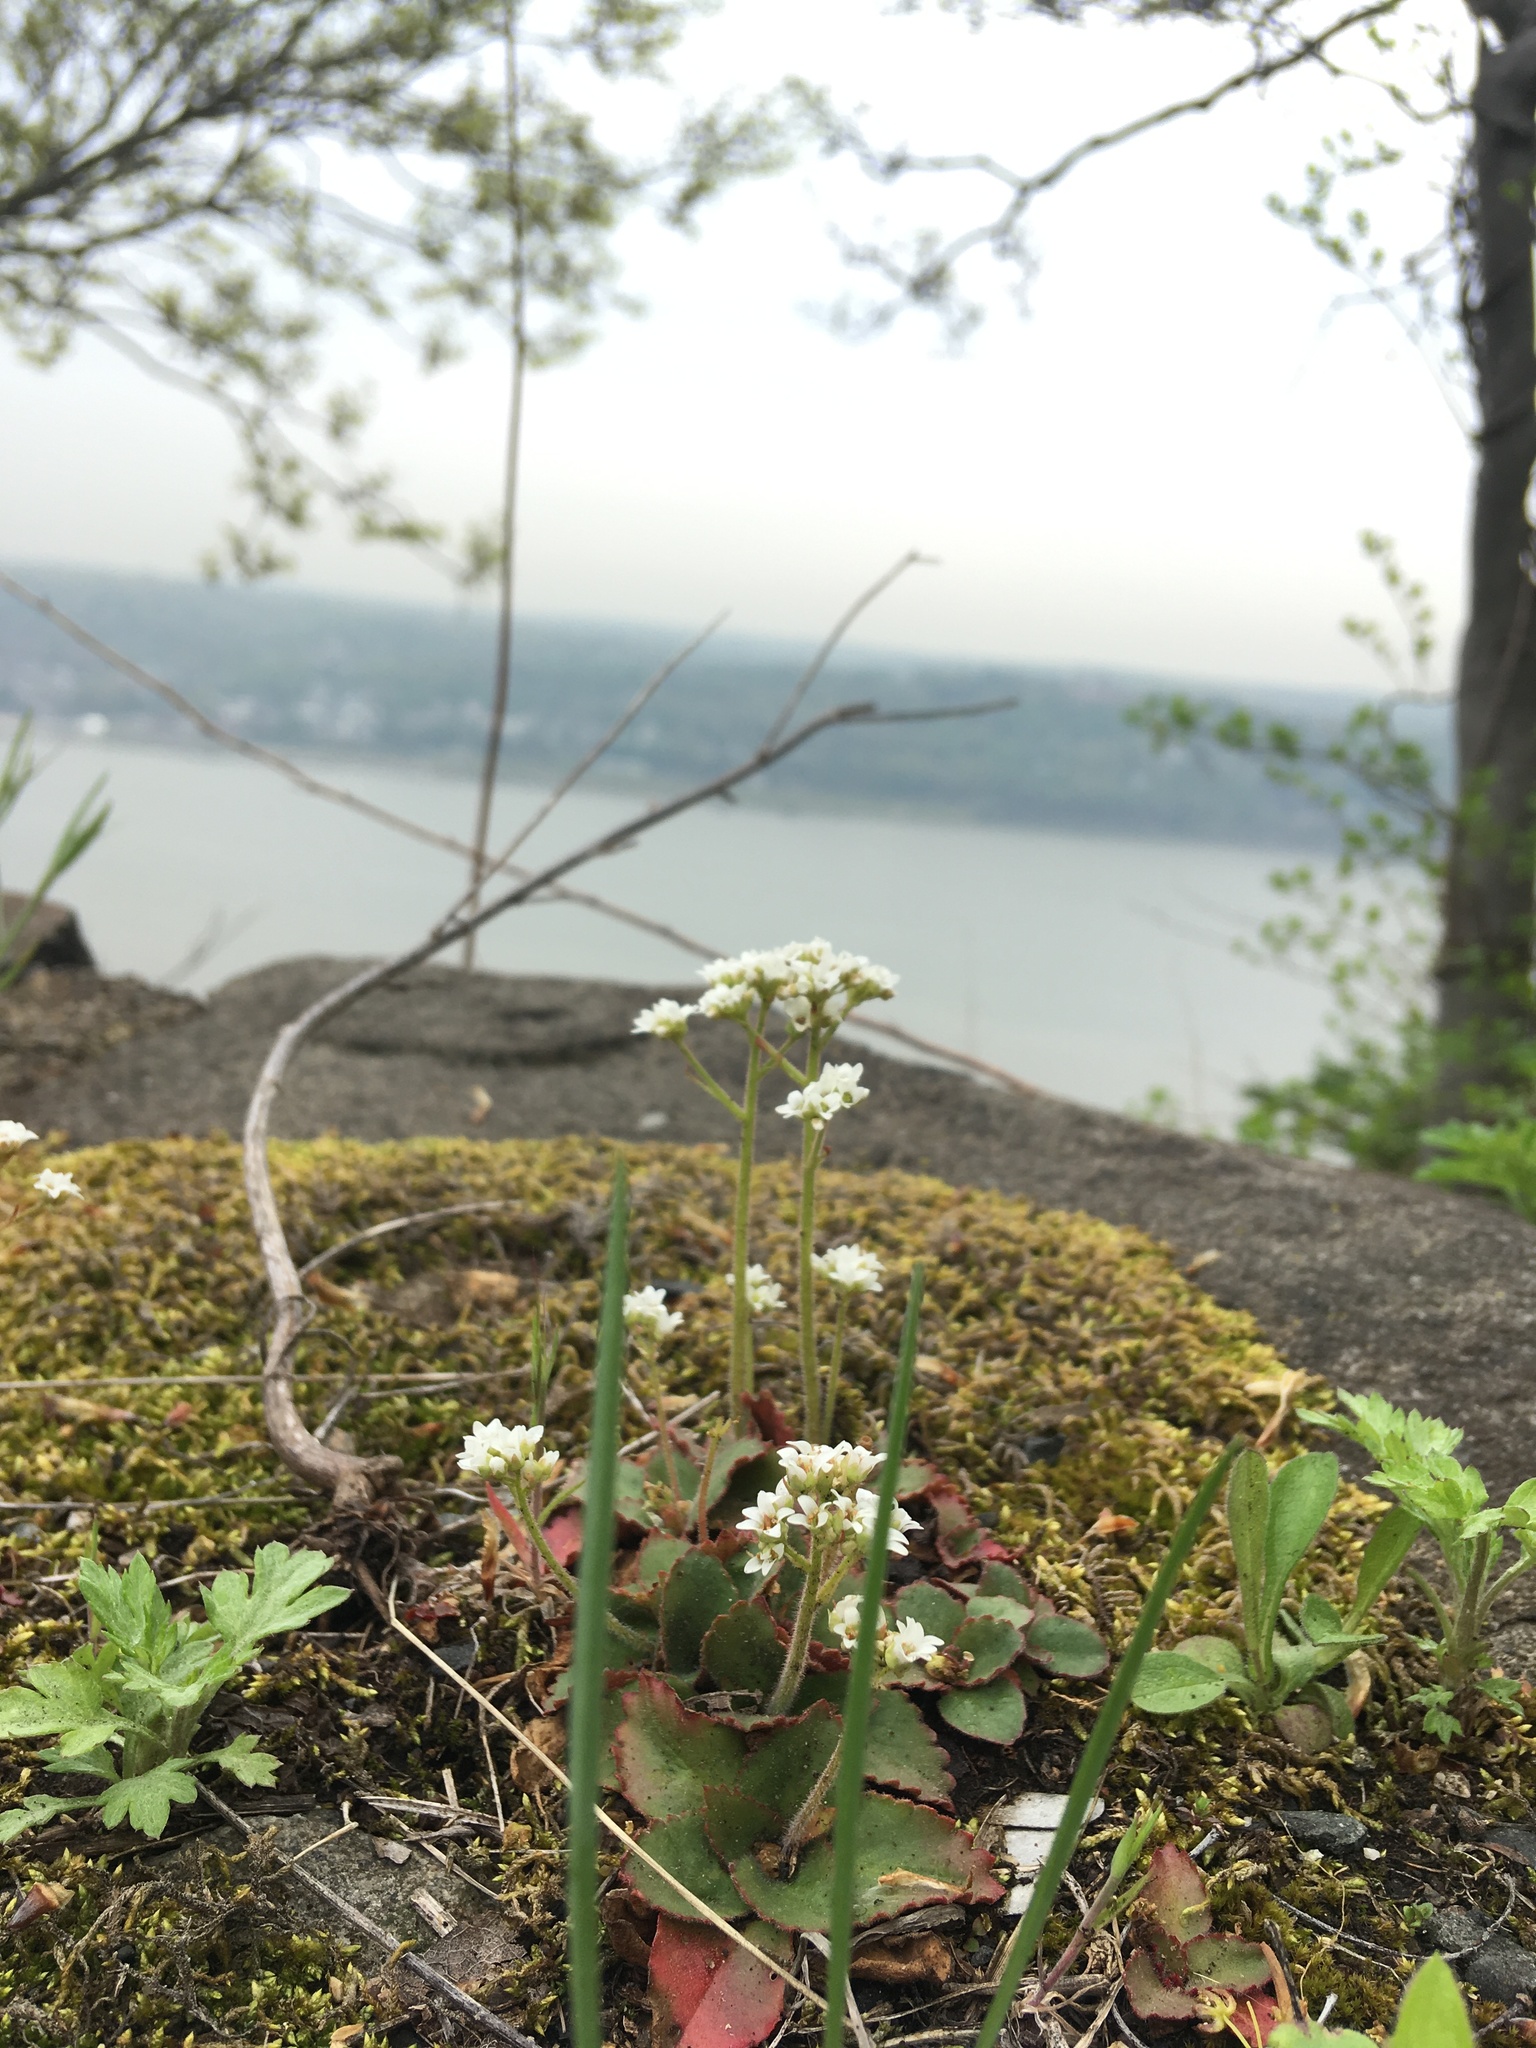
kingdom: Plantae
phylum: Tracheophyta
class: Magnoliopsida
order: Saxifragales
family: Saxifragaceae
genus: Micranthes
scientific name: Micranthes virginiensis
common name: Early saxifrage
